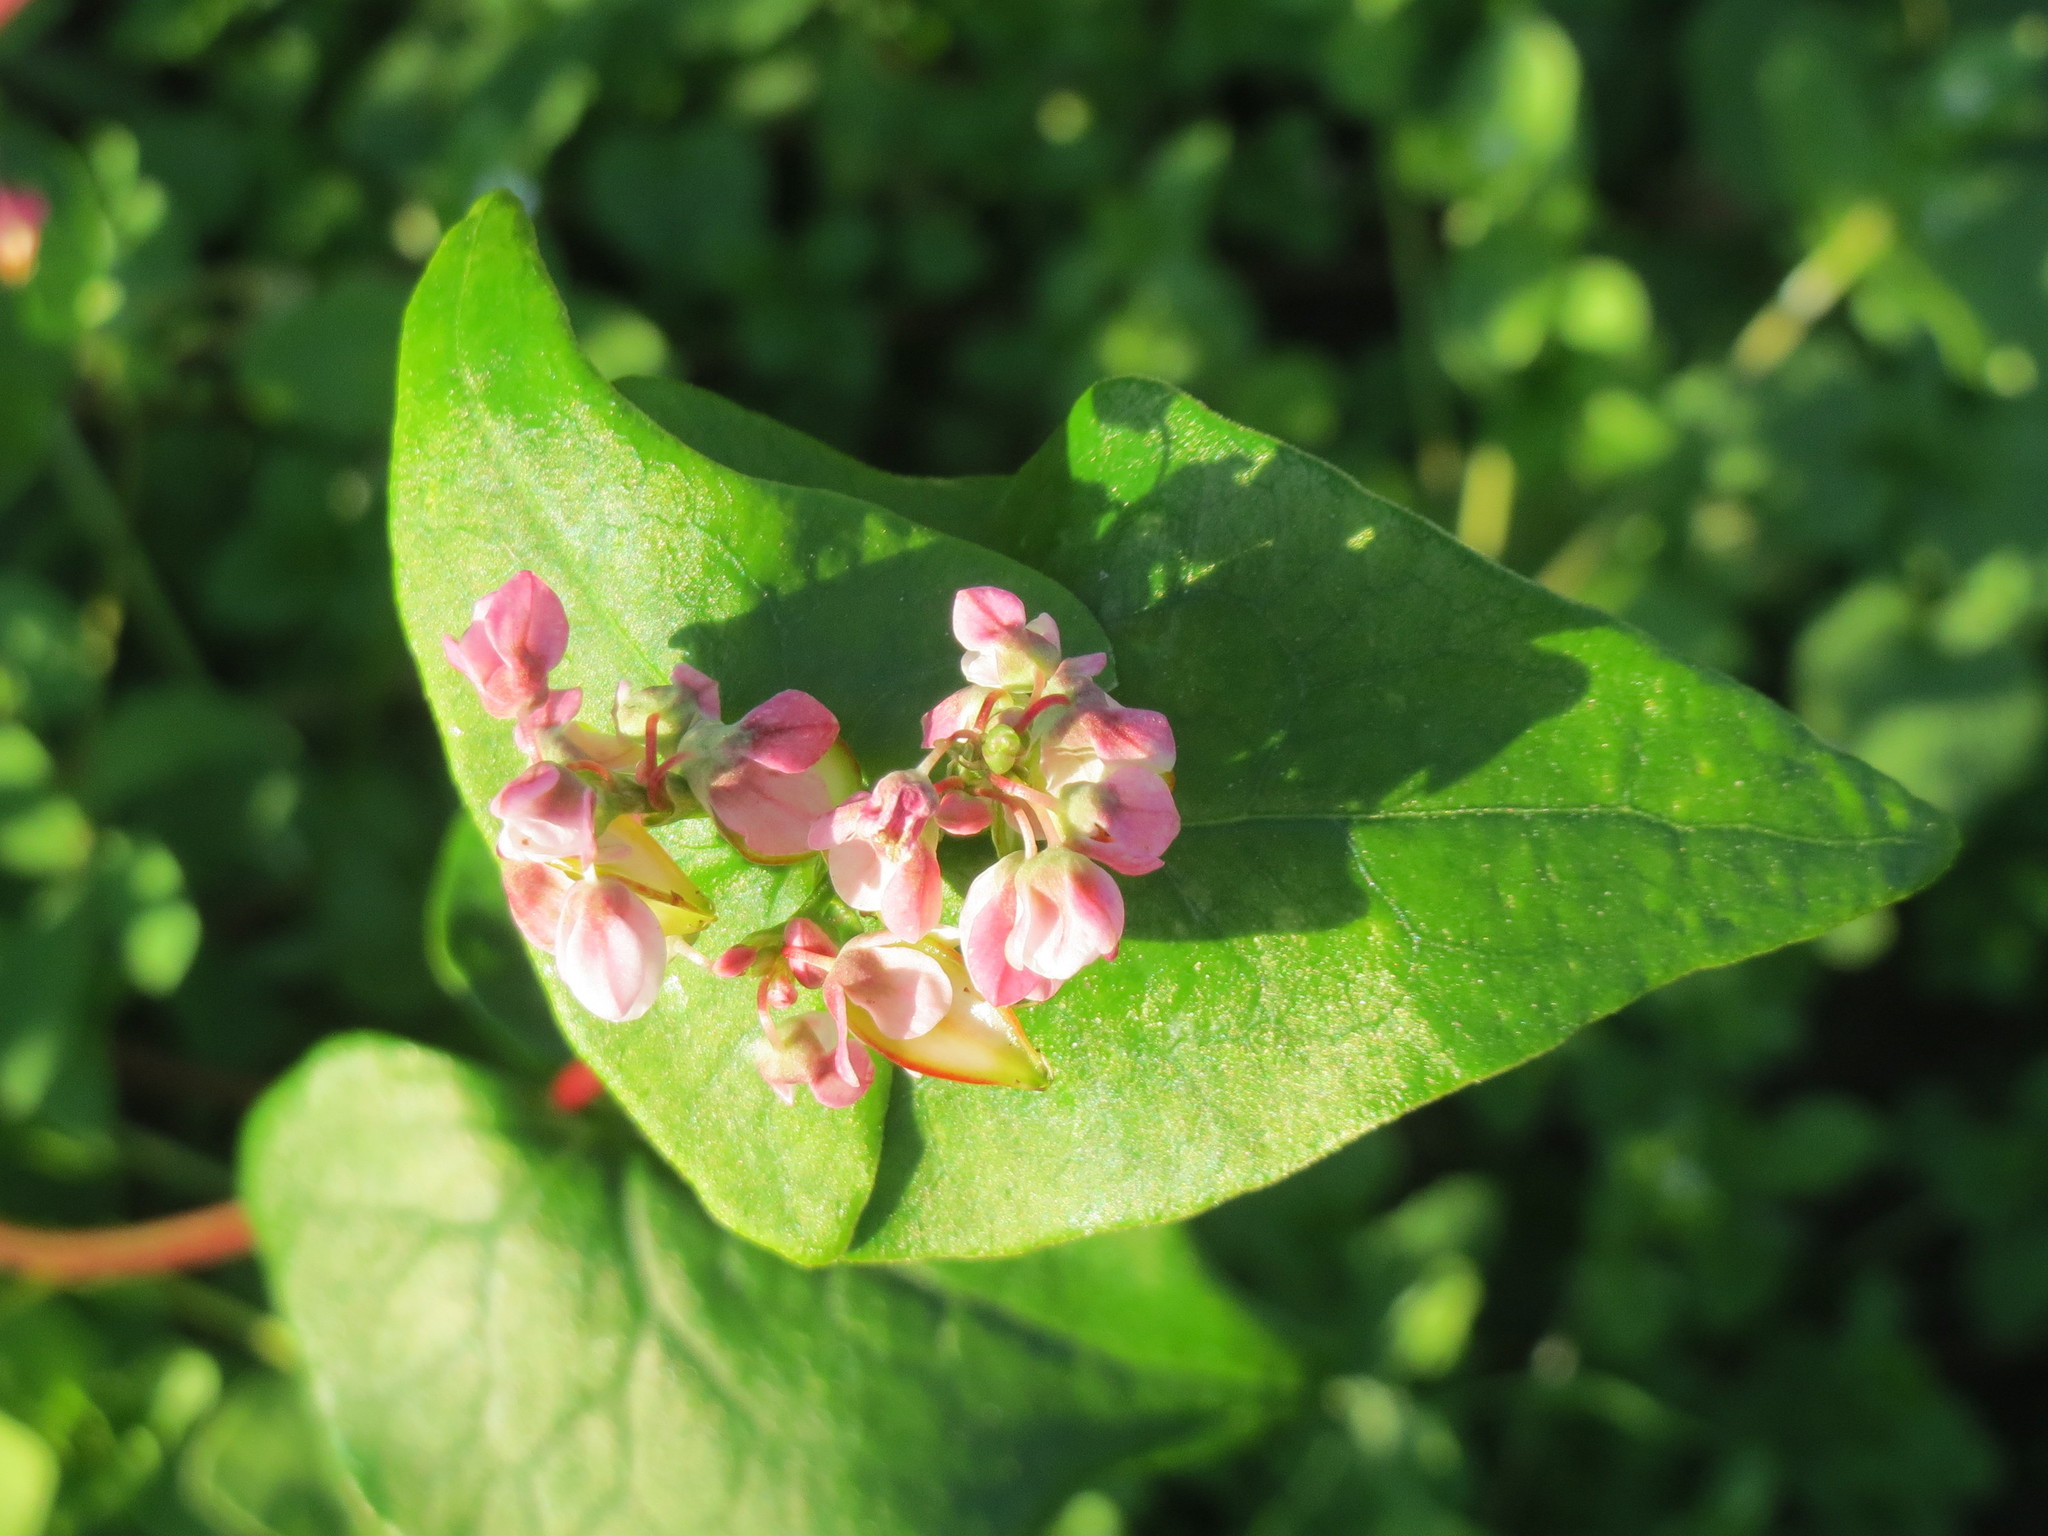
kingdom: Plantae
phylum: Tracheophyta
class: Magnoliopsida
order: Caryophyllales
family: Polygonaceae
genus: Fagopyrum
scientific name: Fagopyrum esculentum
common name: Buckwheat
